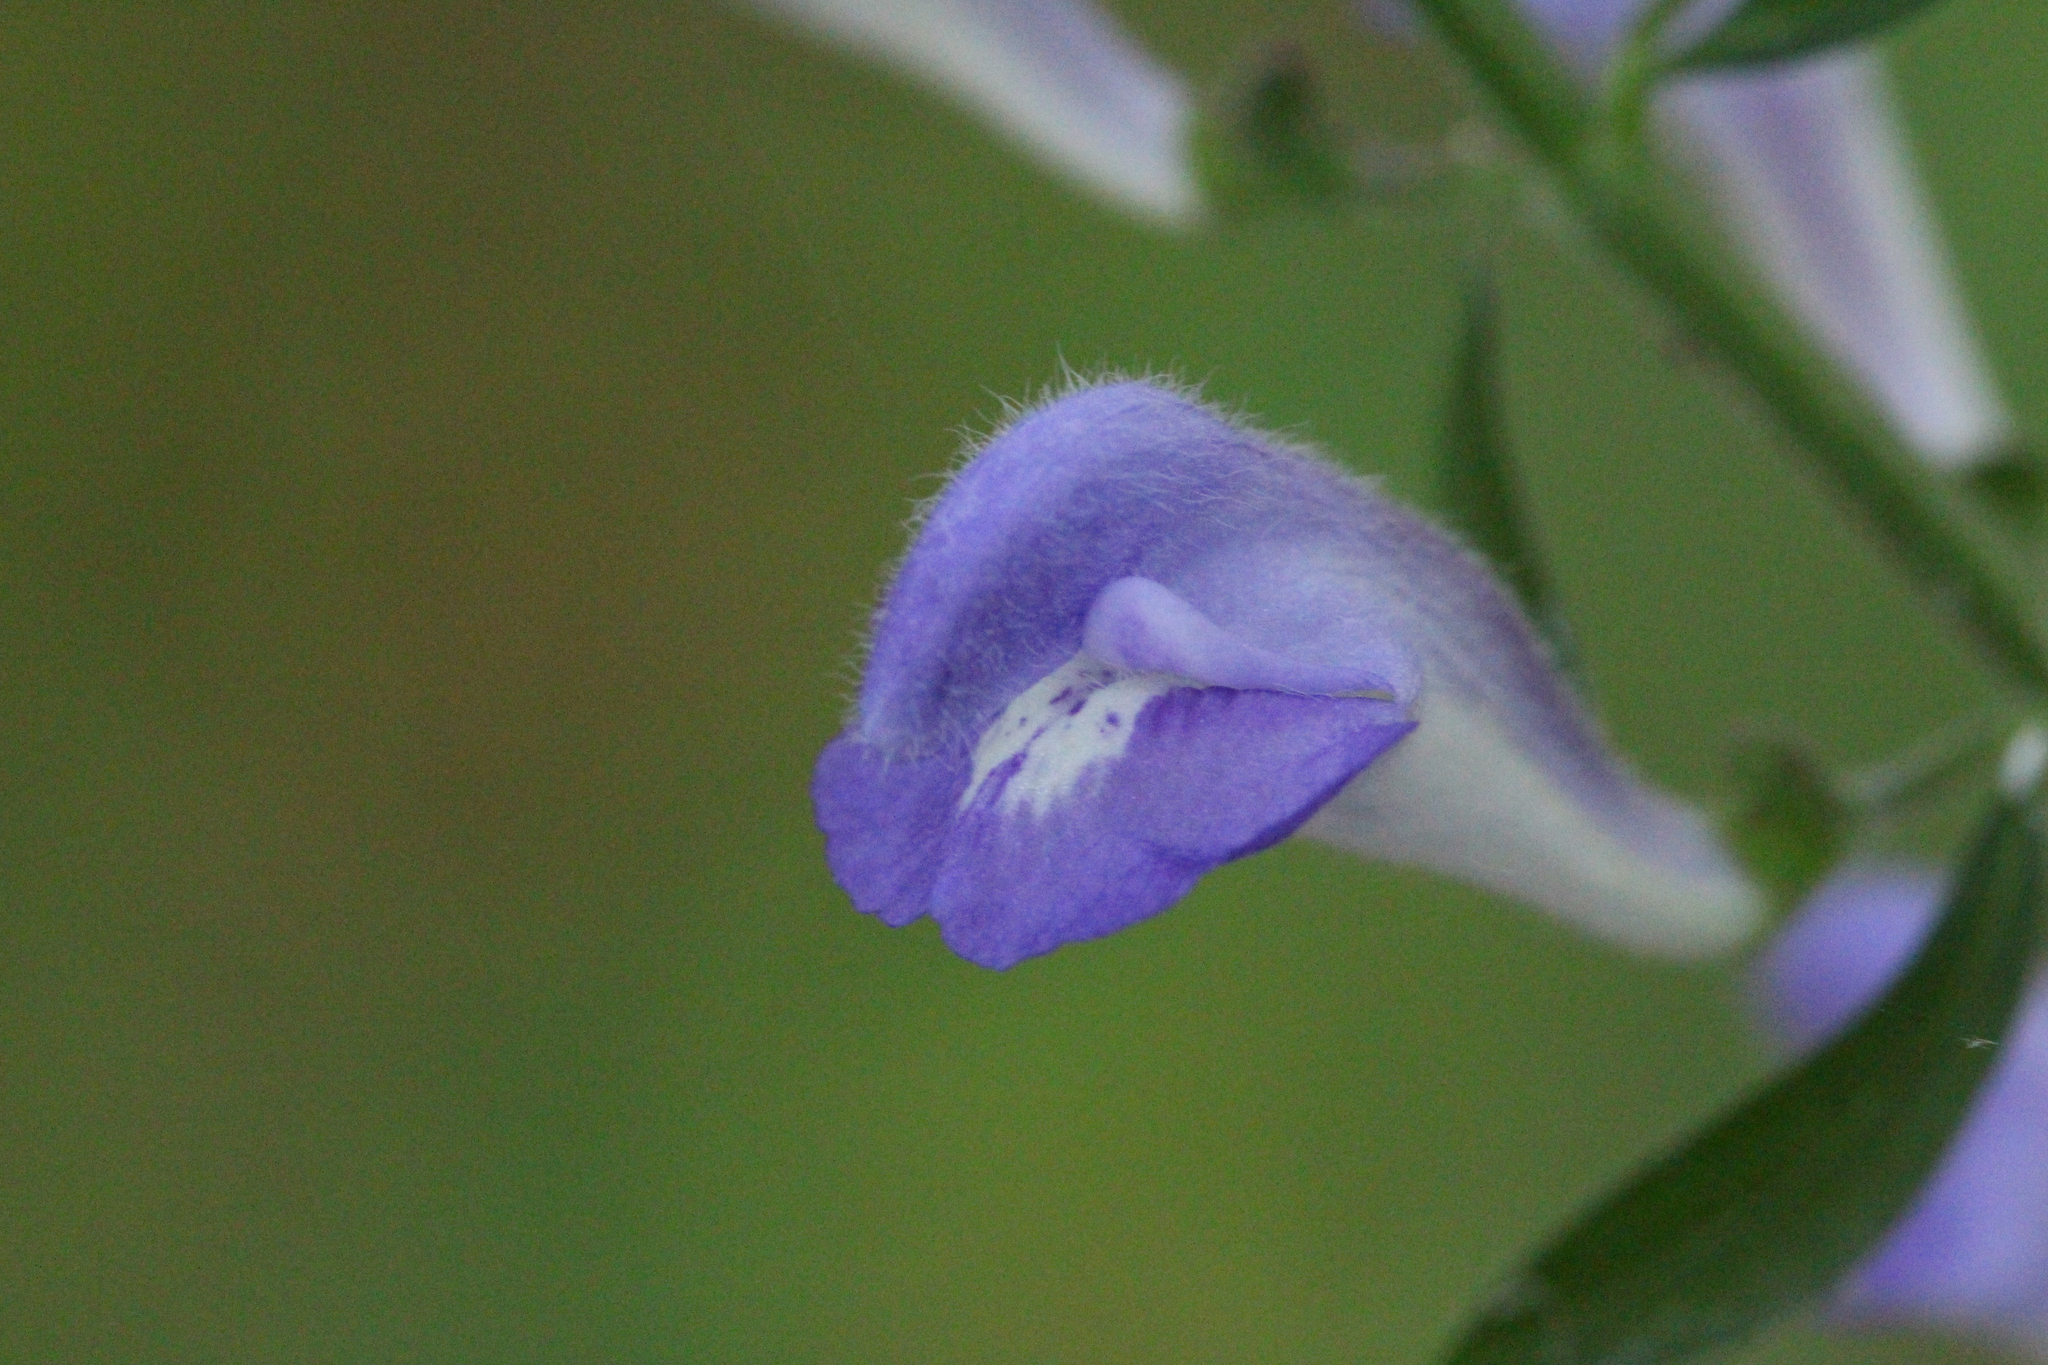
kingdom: Plantae
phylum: Tracheophyta
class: Magnoliopsida
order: Lamiales
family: Lamiaceae
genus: Scutellaria
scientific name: Scutellaria integrifolia
